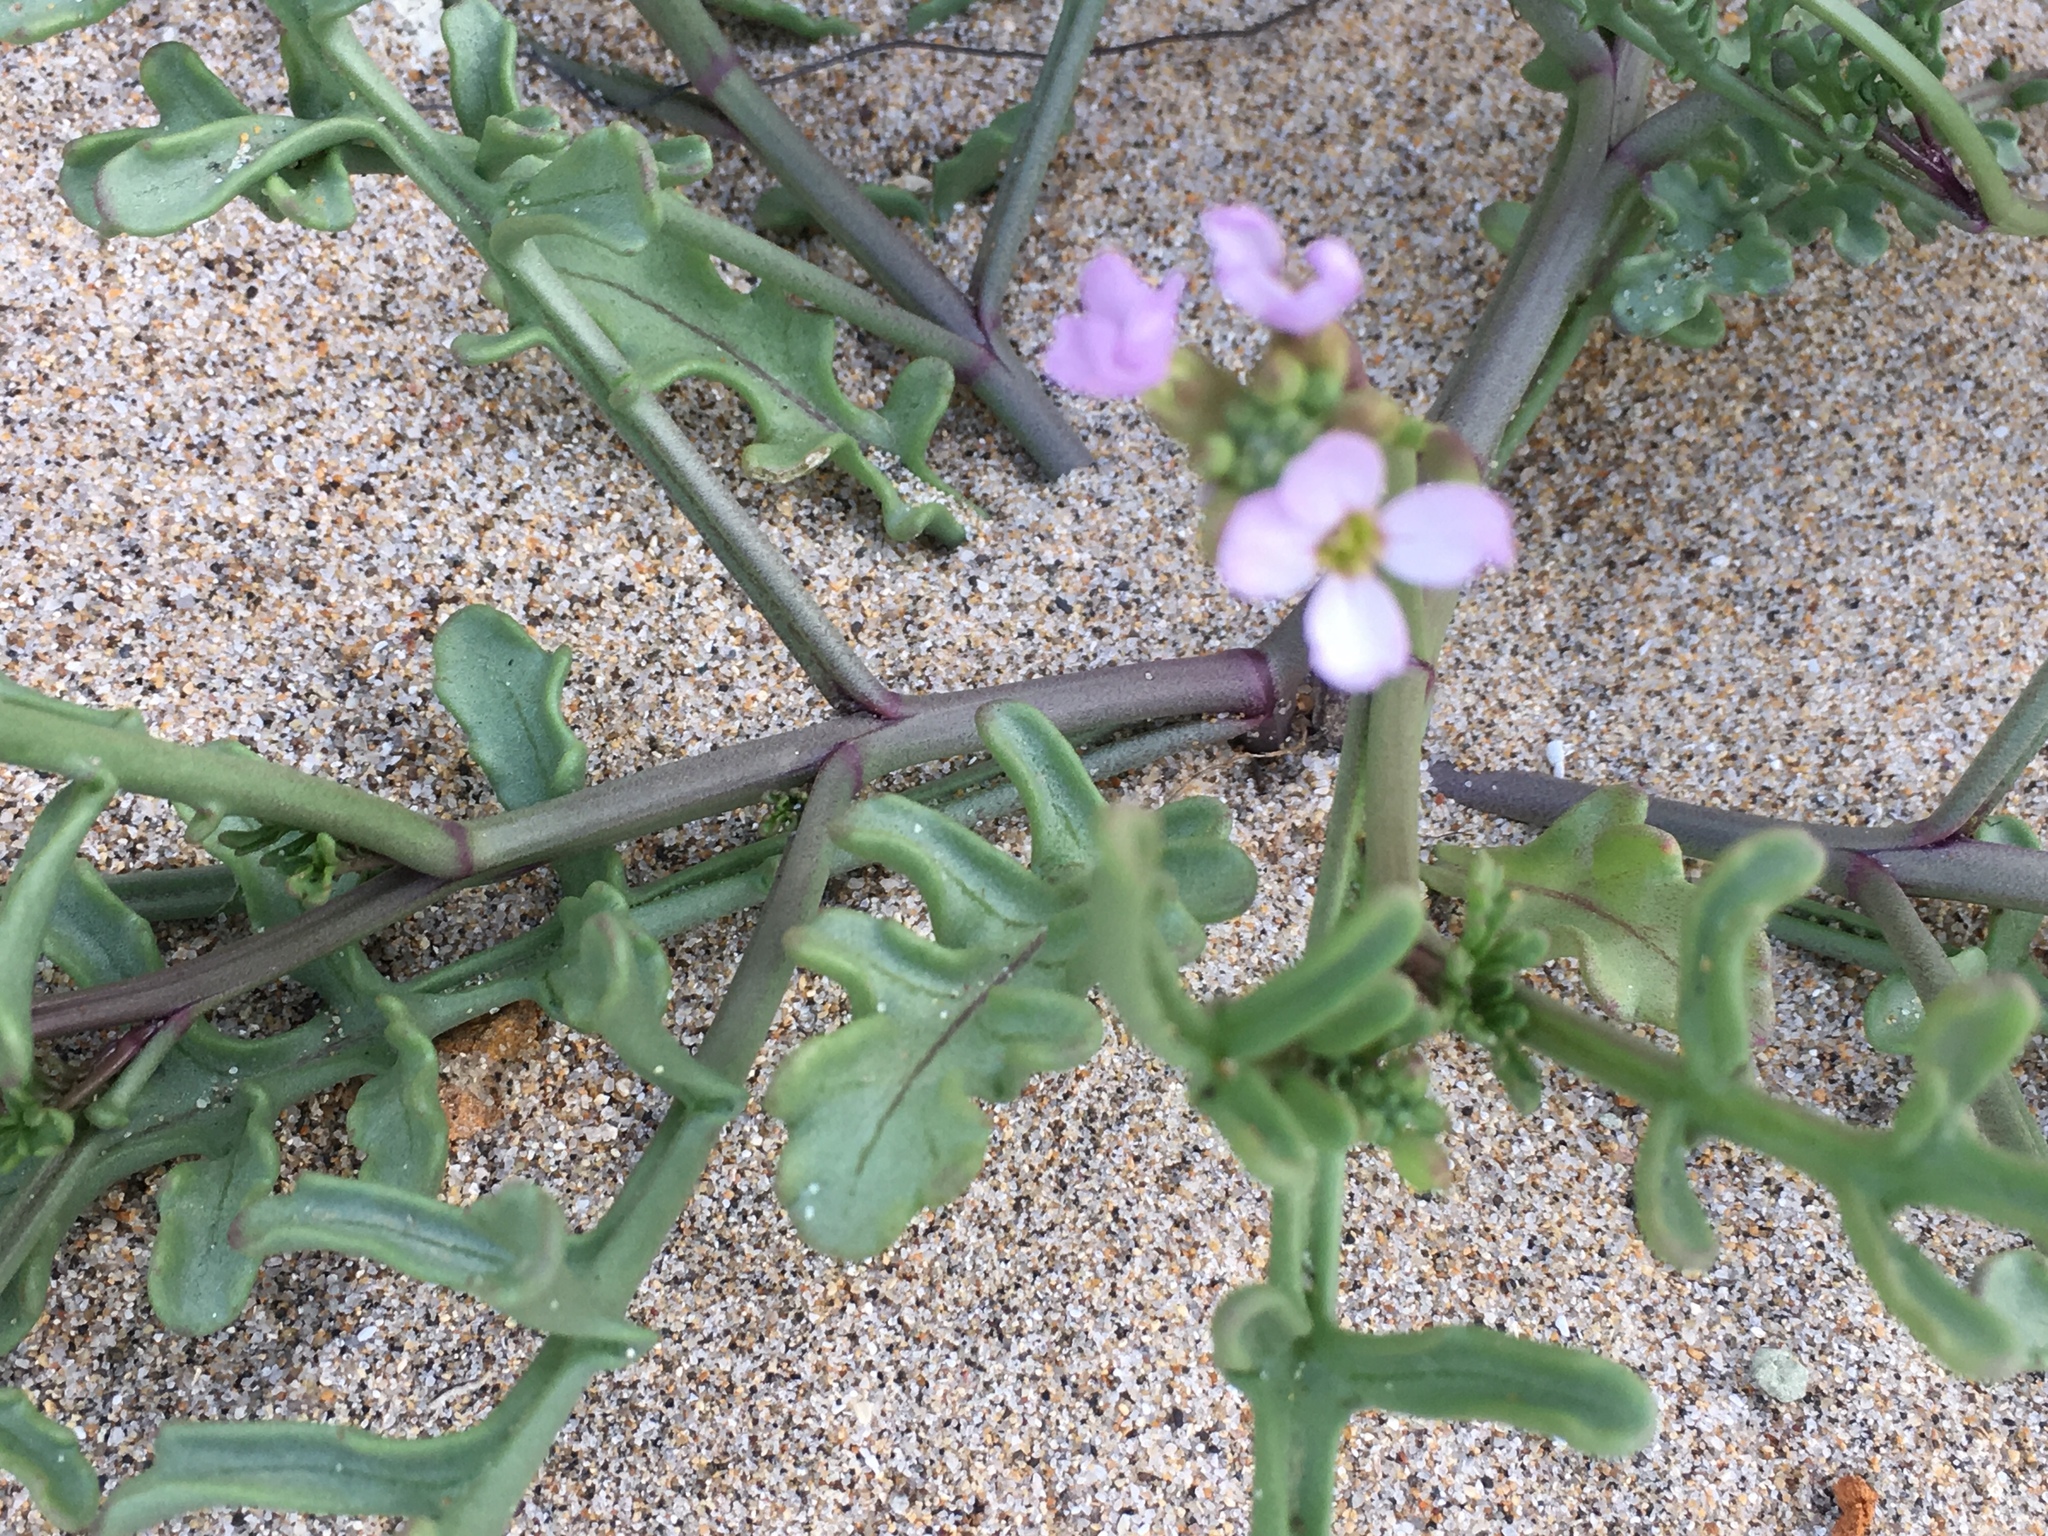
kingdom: Plantae
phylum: Tracheophyta
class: Magnoliopsida
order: Brassicales
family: Brassicaceae
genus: Cakile
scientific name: Cakile maritima
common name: Sea rocket
